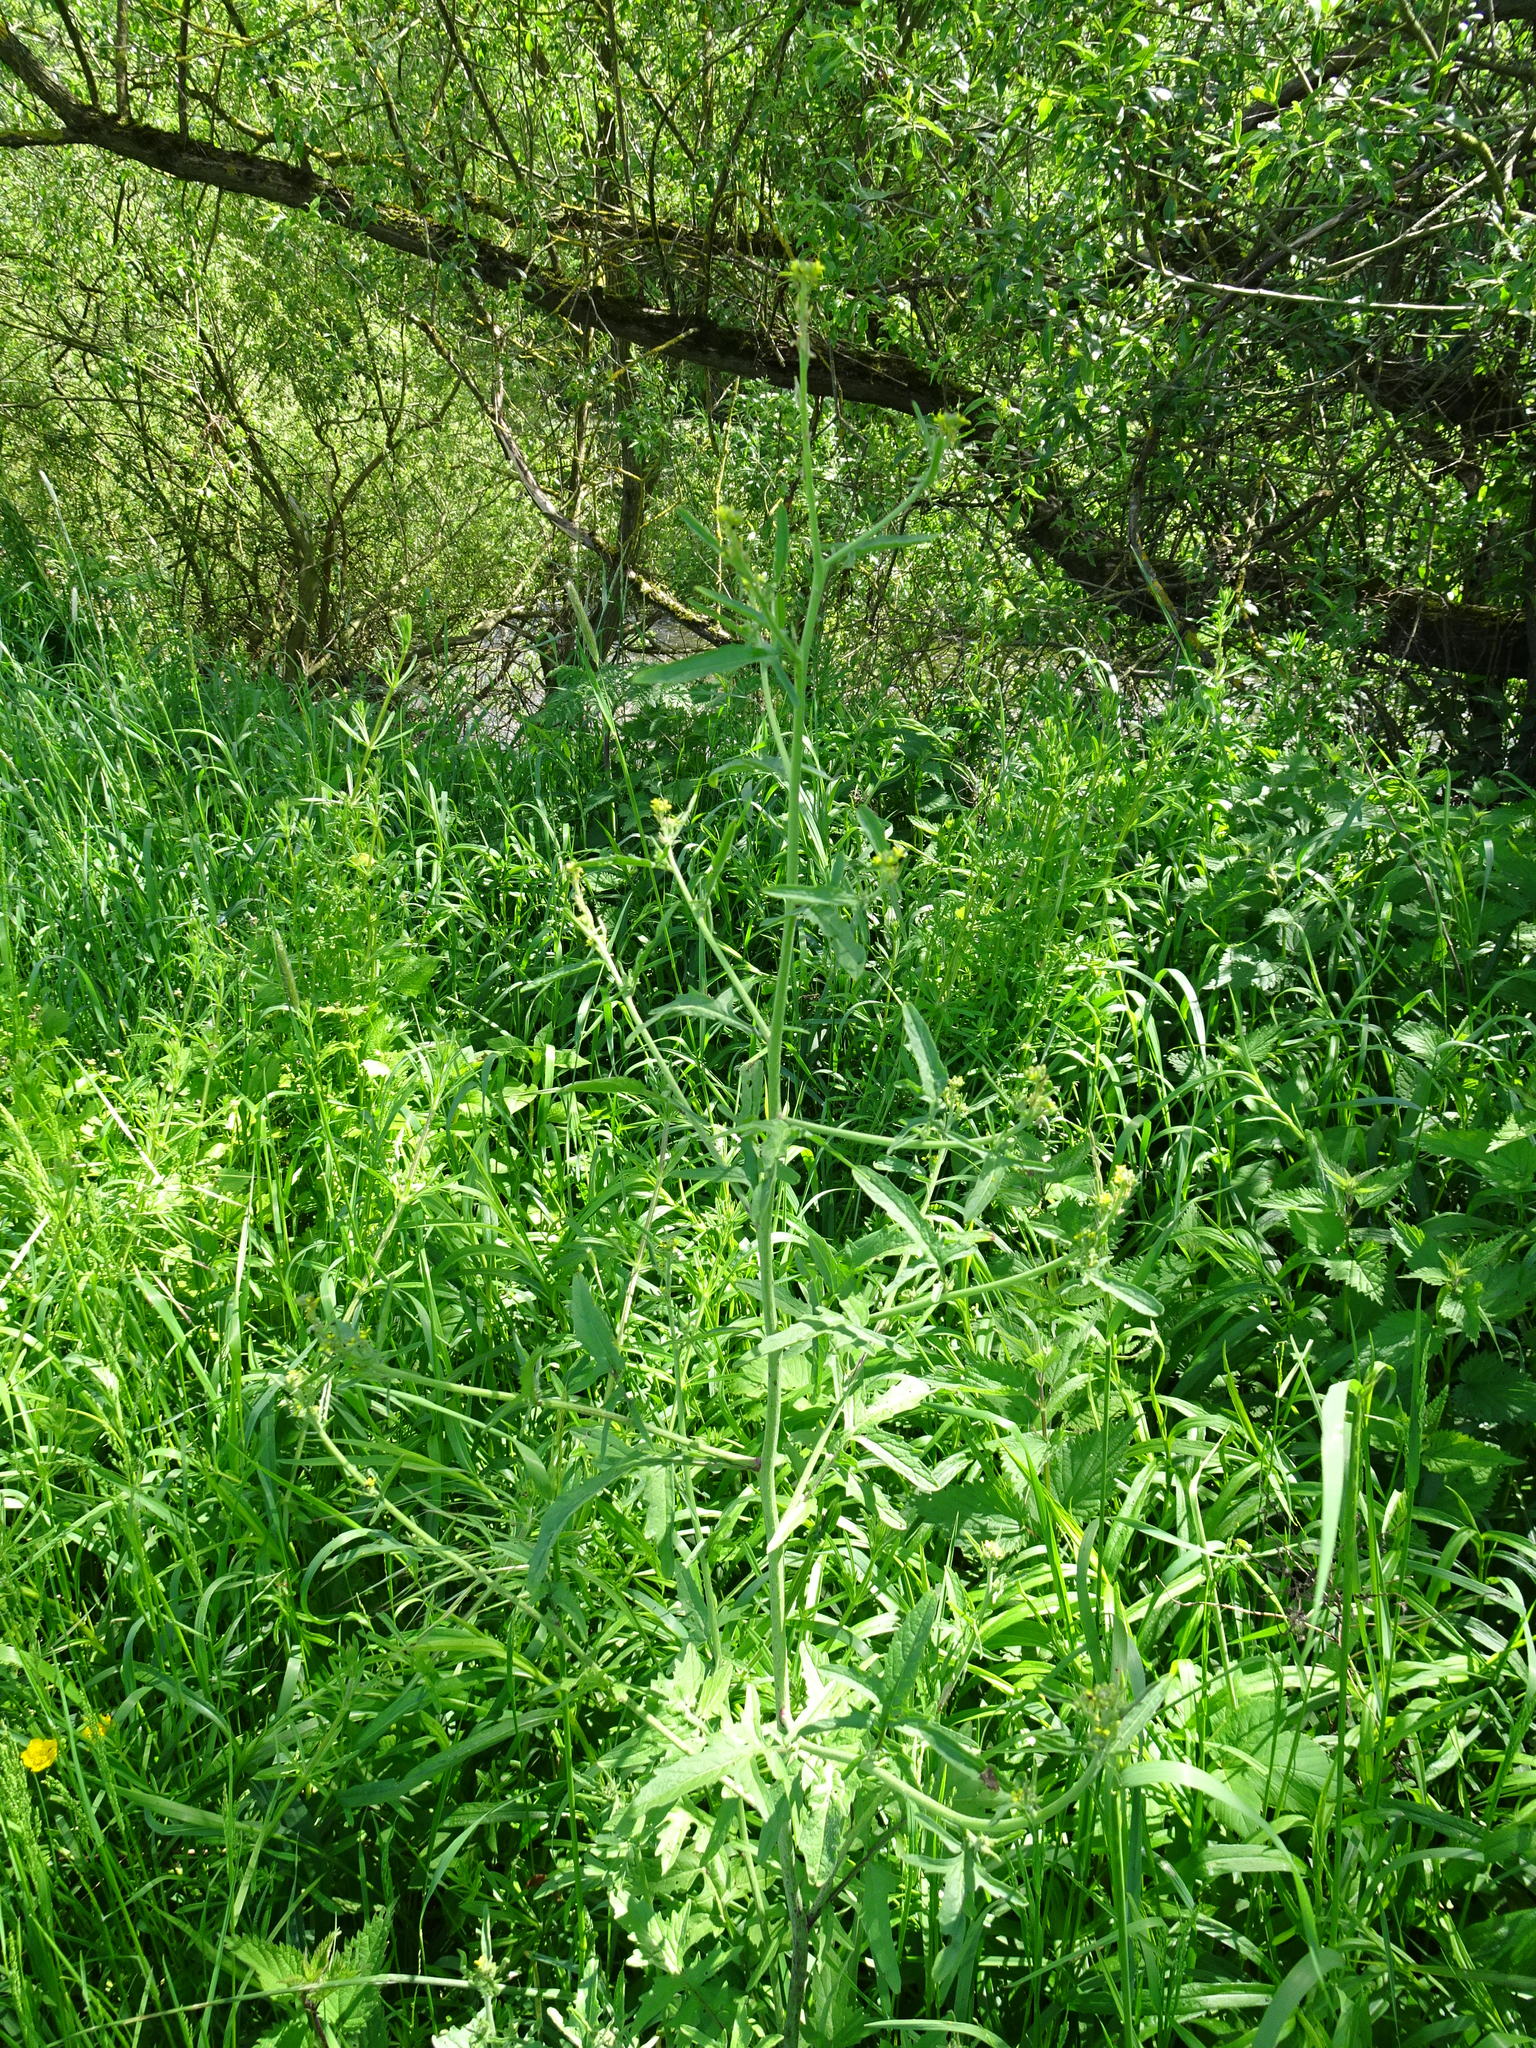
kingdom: Plantae
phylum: Tracheophyta
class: Magnoliopsida
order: Brassicales
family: Brassicaceae
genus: Sisymbrium
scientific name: Sisymbrium officinale
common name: Hedge mustard
